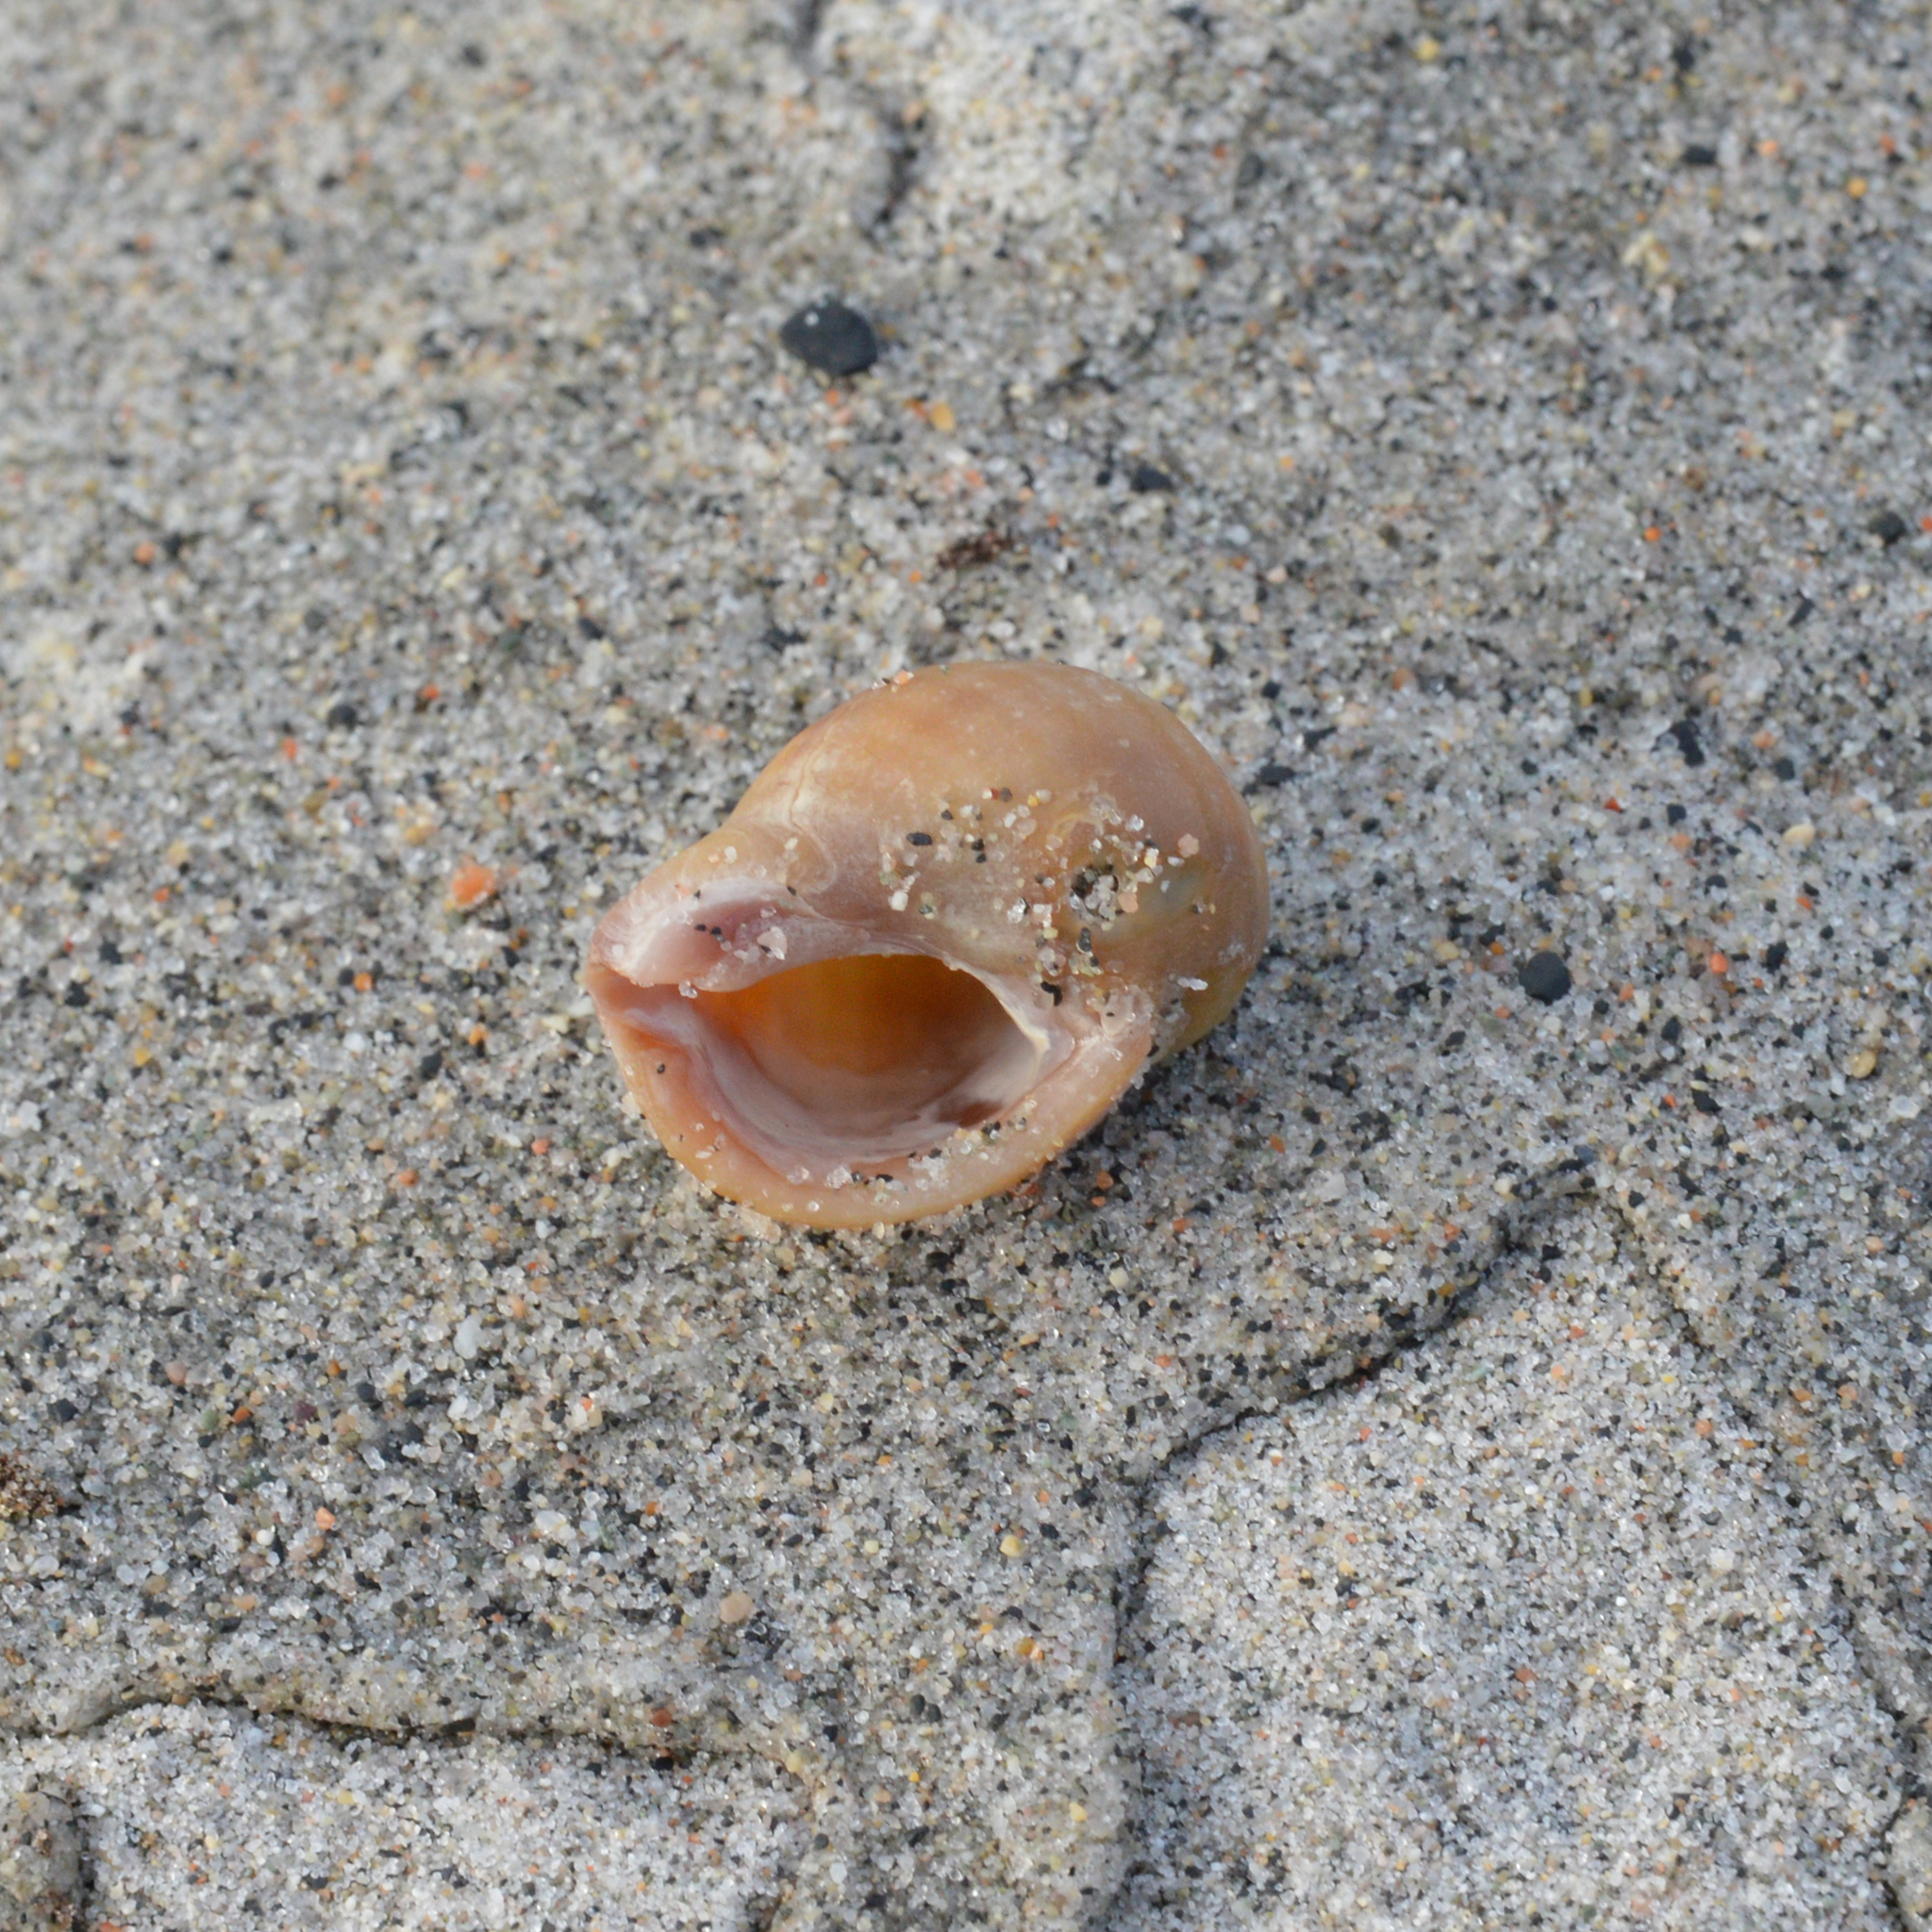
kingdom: Animalia
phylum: Mollusca
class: Gastropoda
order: Neogastropoda
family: Muricidae
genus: Nucella
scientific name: Nucella lapillus
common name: Dog whelk
